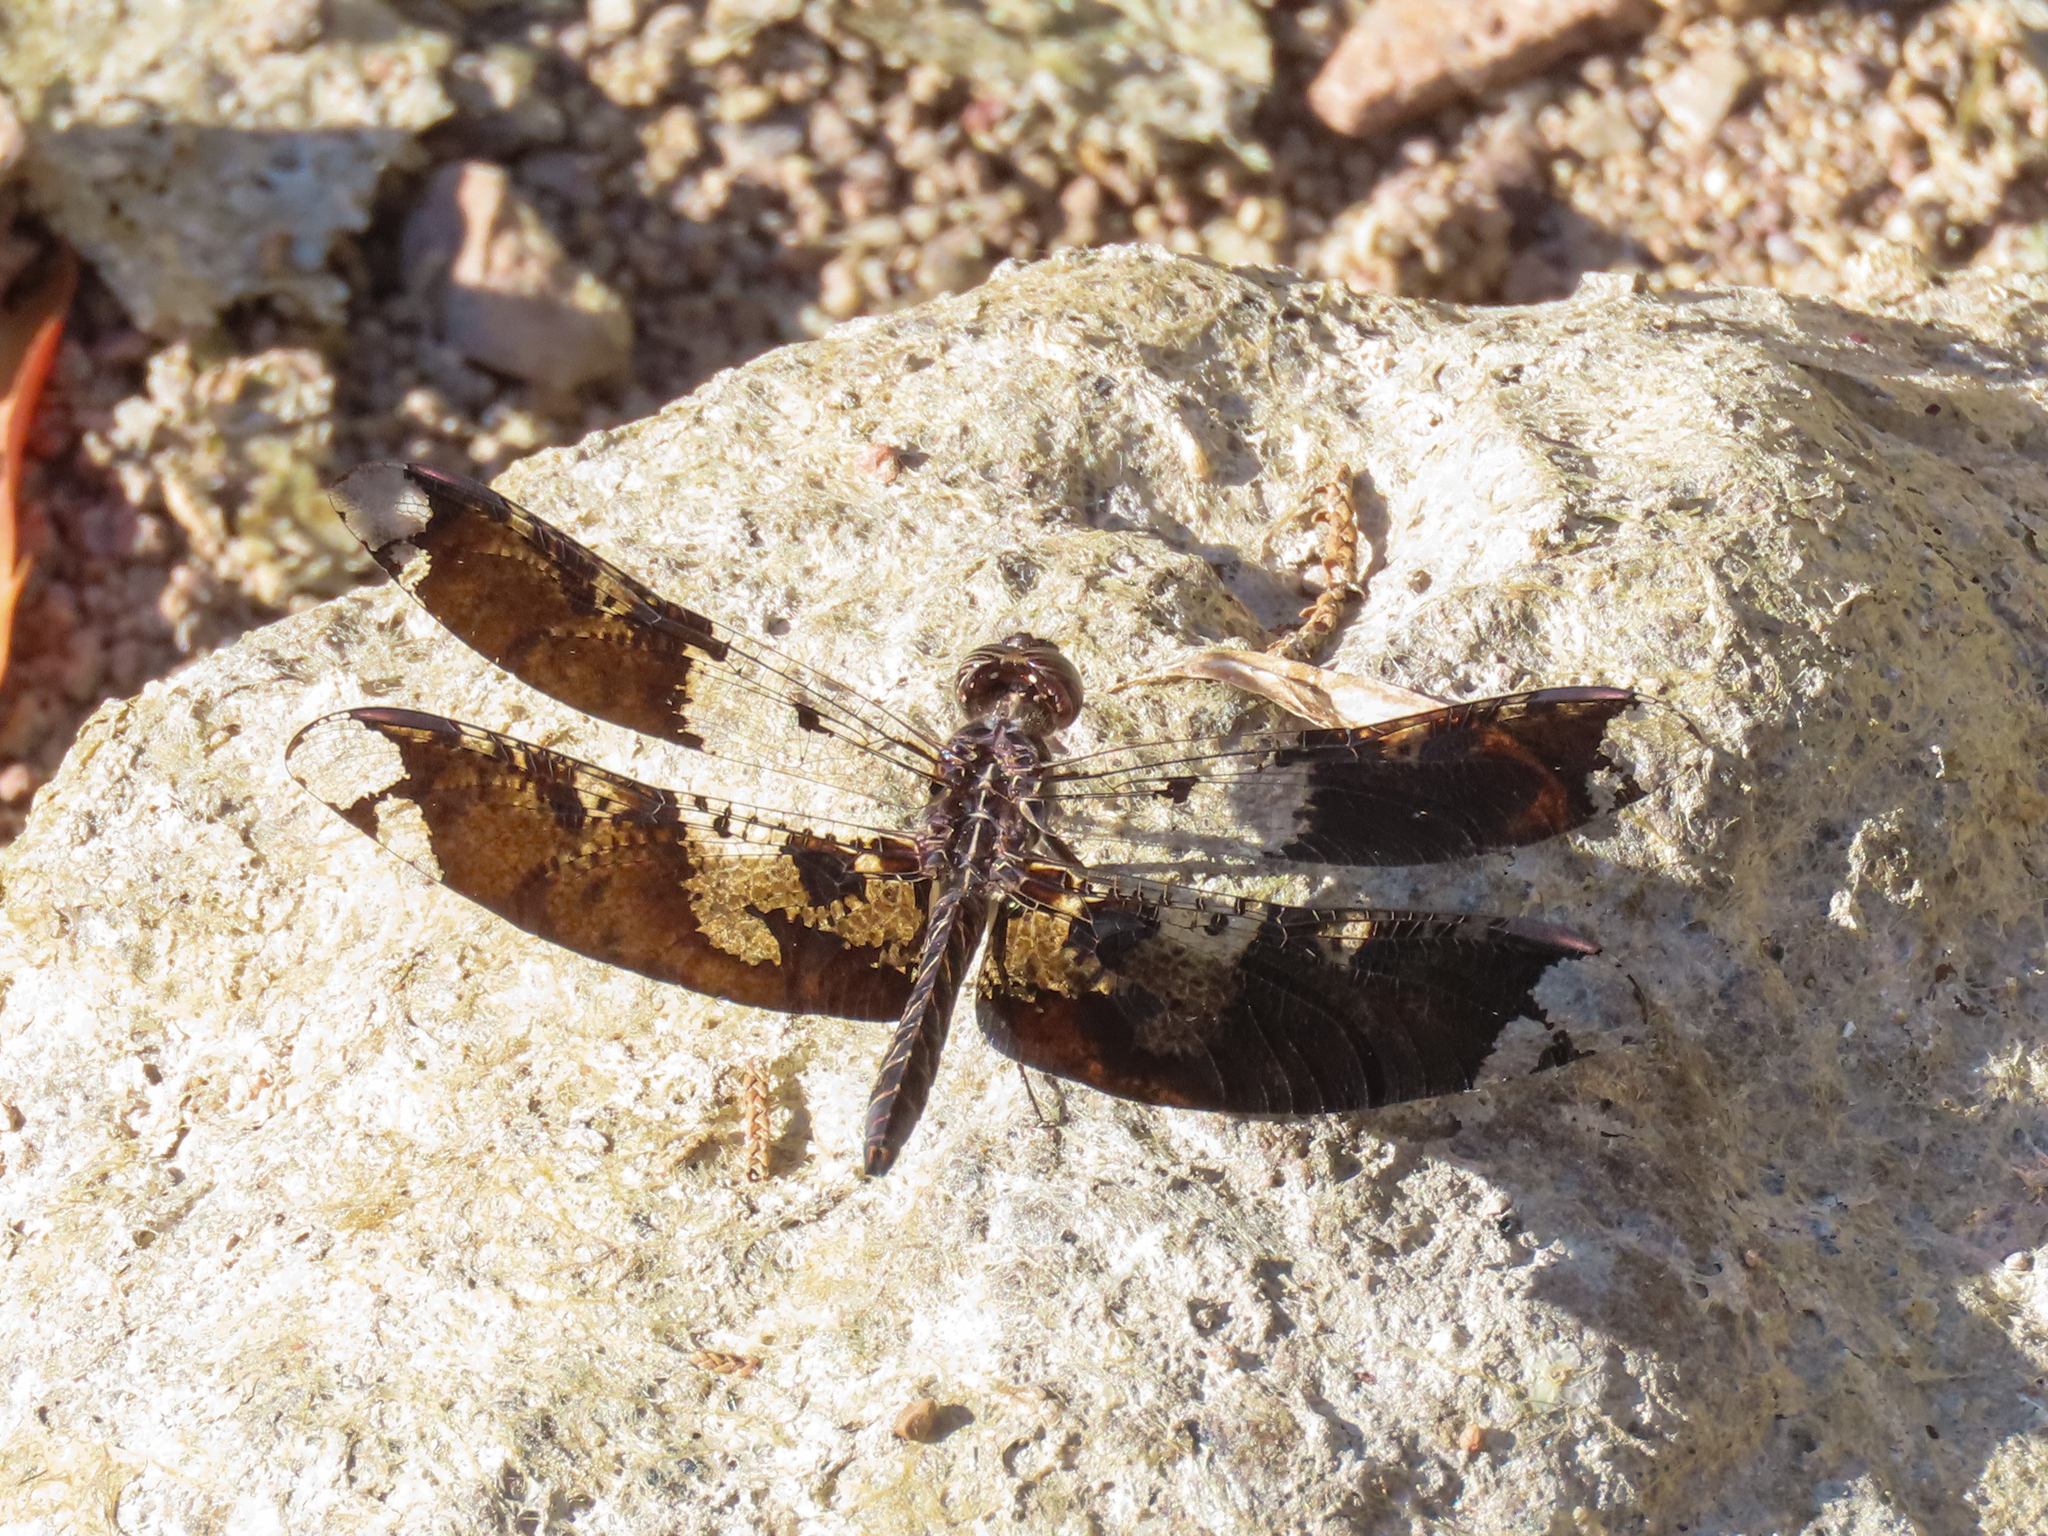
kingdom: Animalia
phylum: Arthropoda
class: Insecta
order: Odonata
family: Libellulidae
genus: Pseudoleon
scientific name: Pseudoleon superbus
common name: Filigree skimmer
